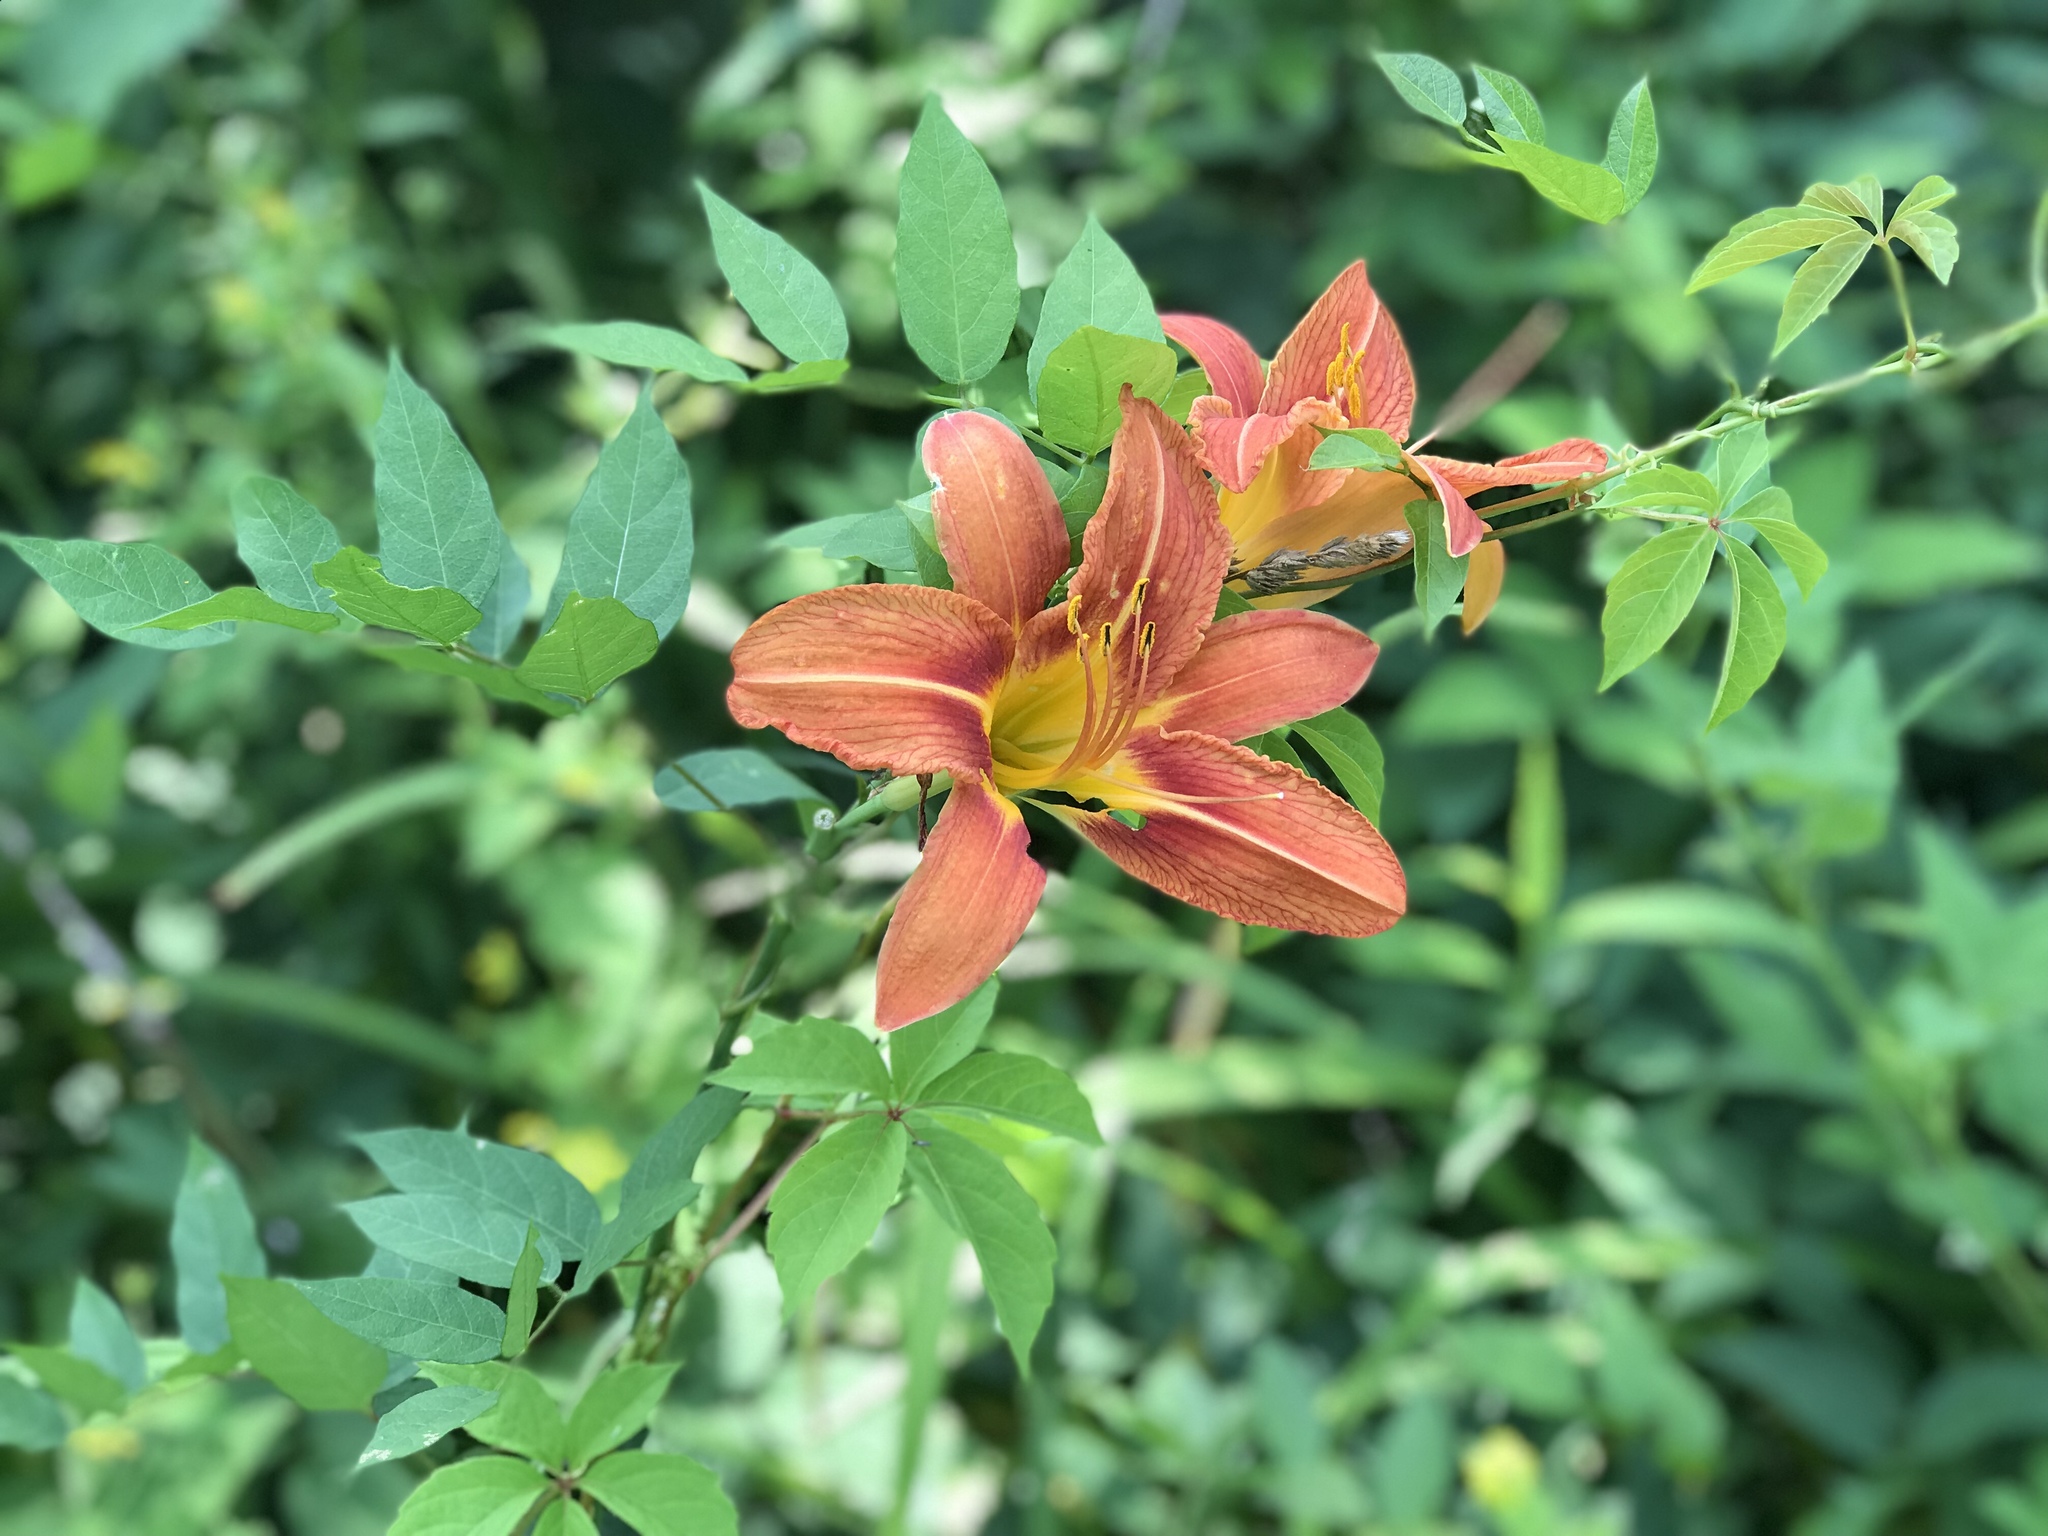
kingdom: Plantae
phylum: Tracheophyta
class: Liliopsida
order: Asparagales
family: Asphodelaceae
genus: Hemerocallis
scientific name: Hemerocallis fulva
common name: Orange day-lily
